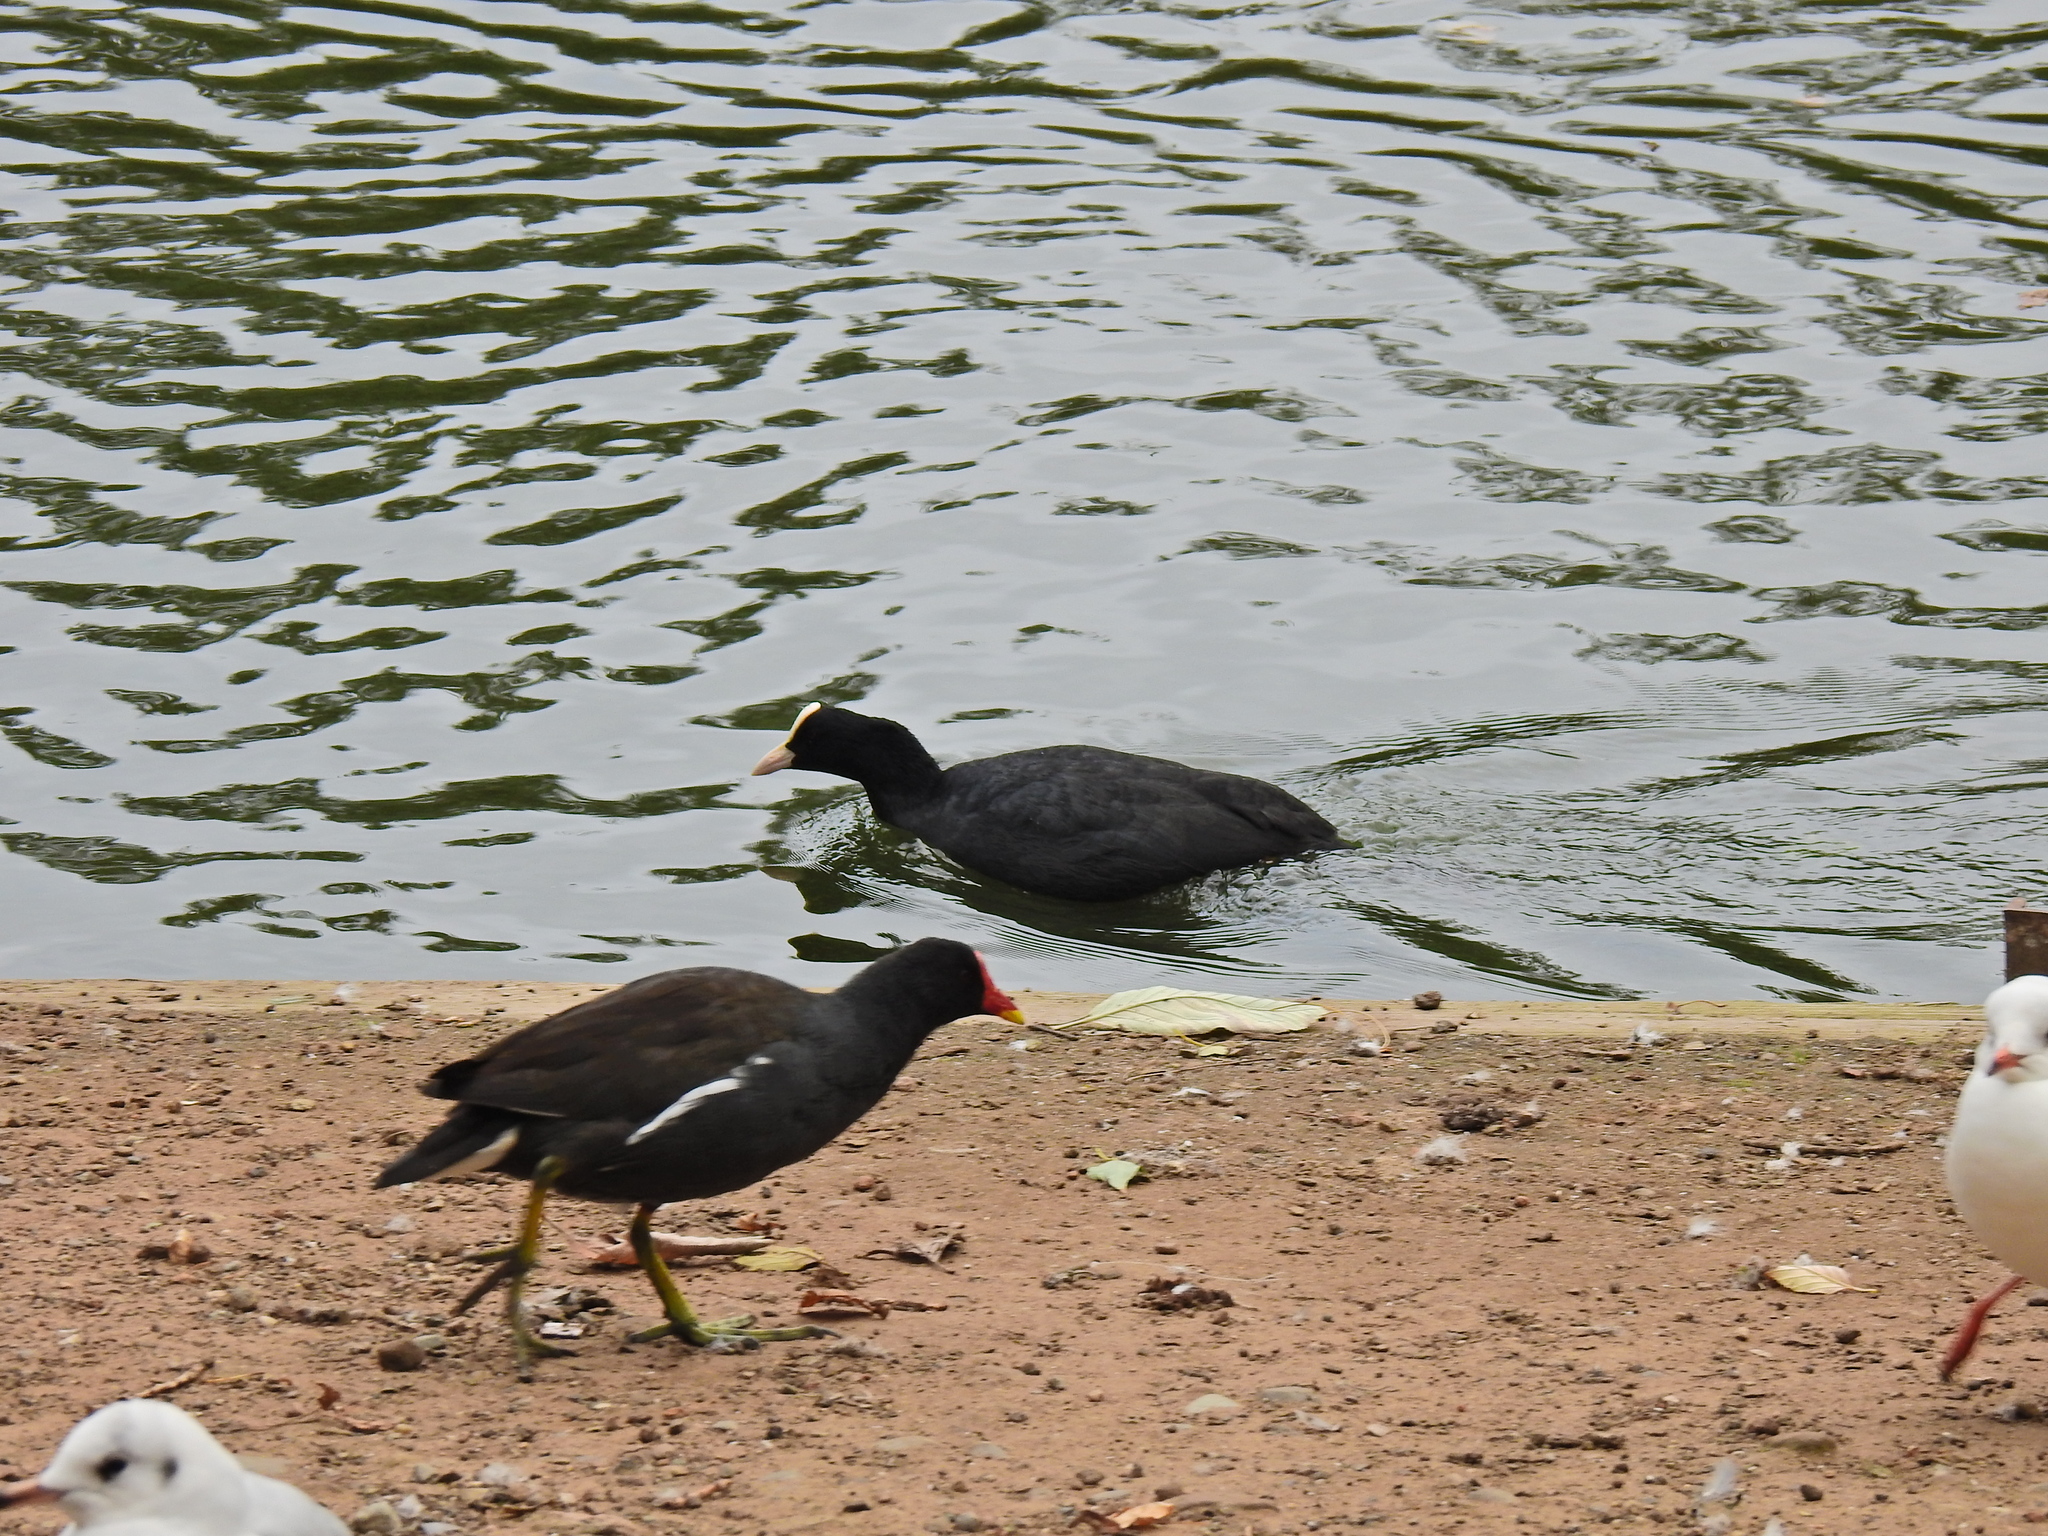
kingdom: Animalia
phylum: Chordata
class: Aves
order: Gruiformes
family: Rallidae
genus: Fulica
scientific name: Fulica atra
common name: Eurasian coot
